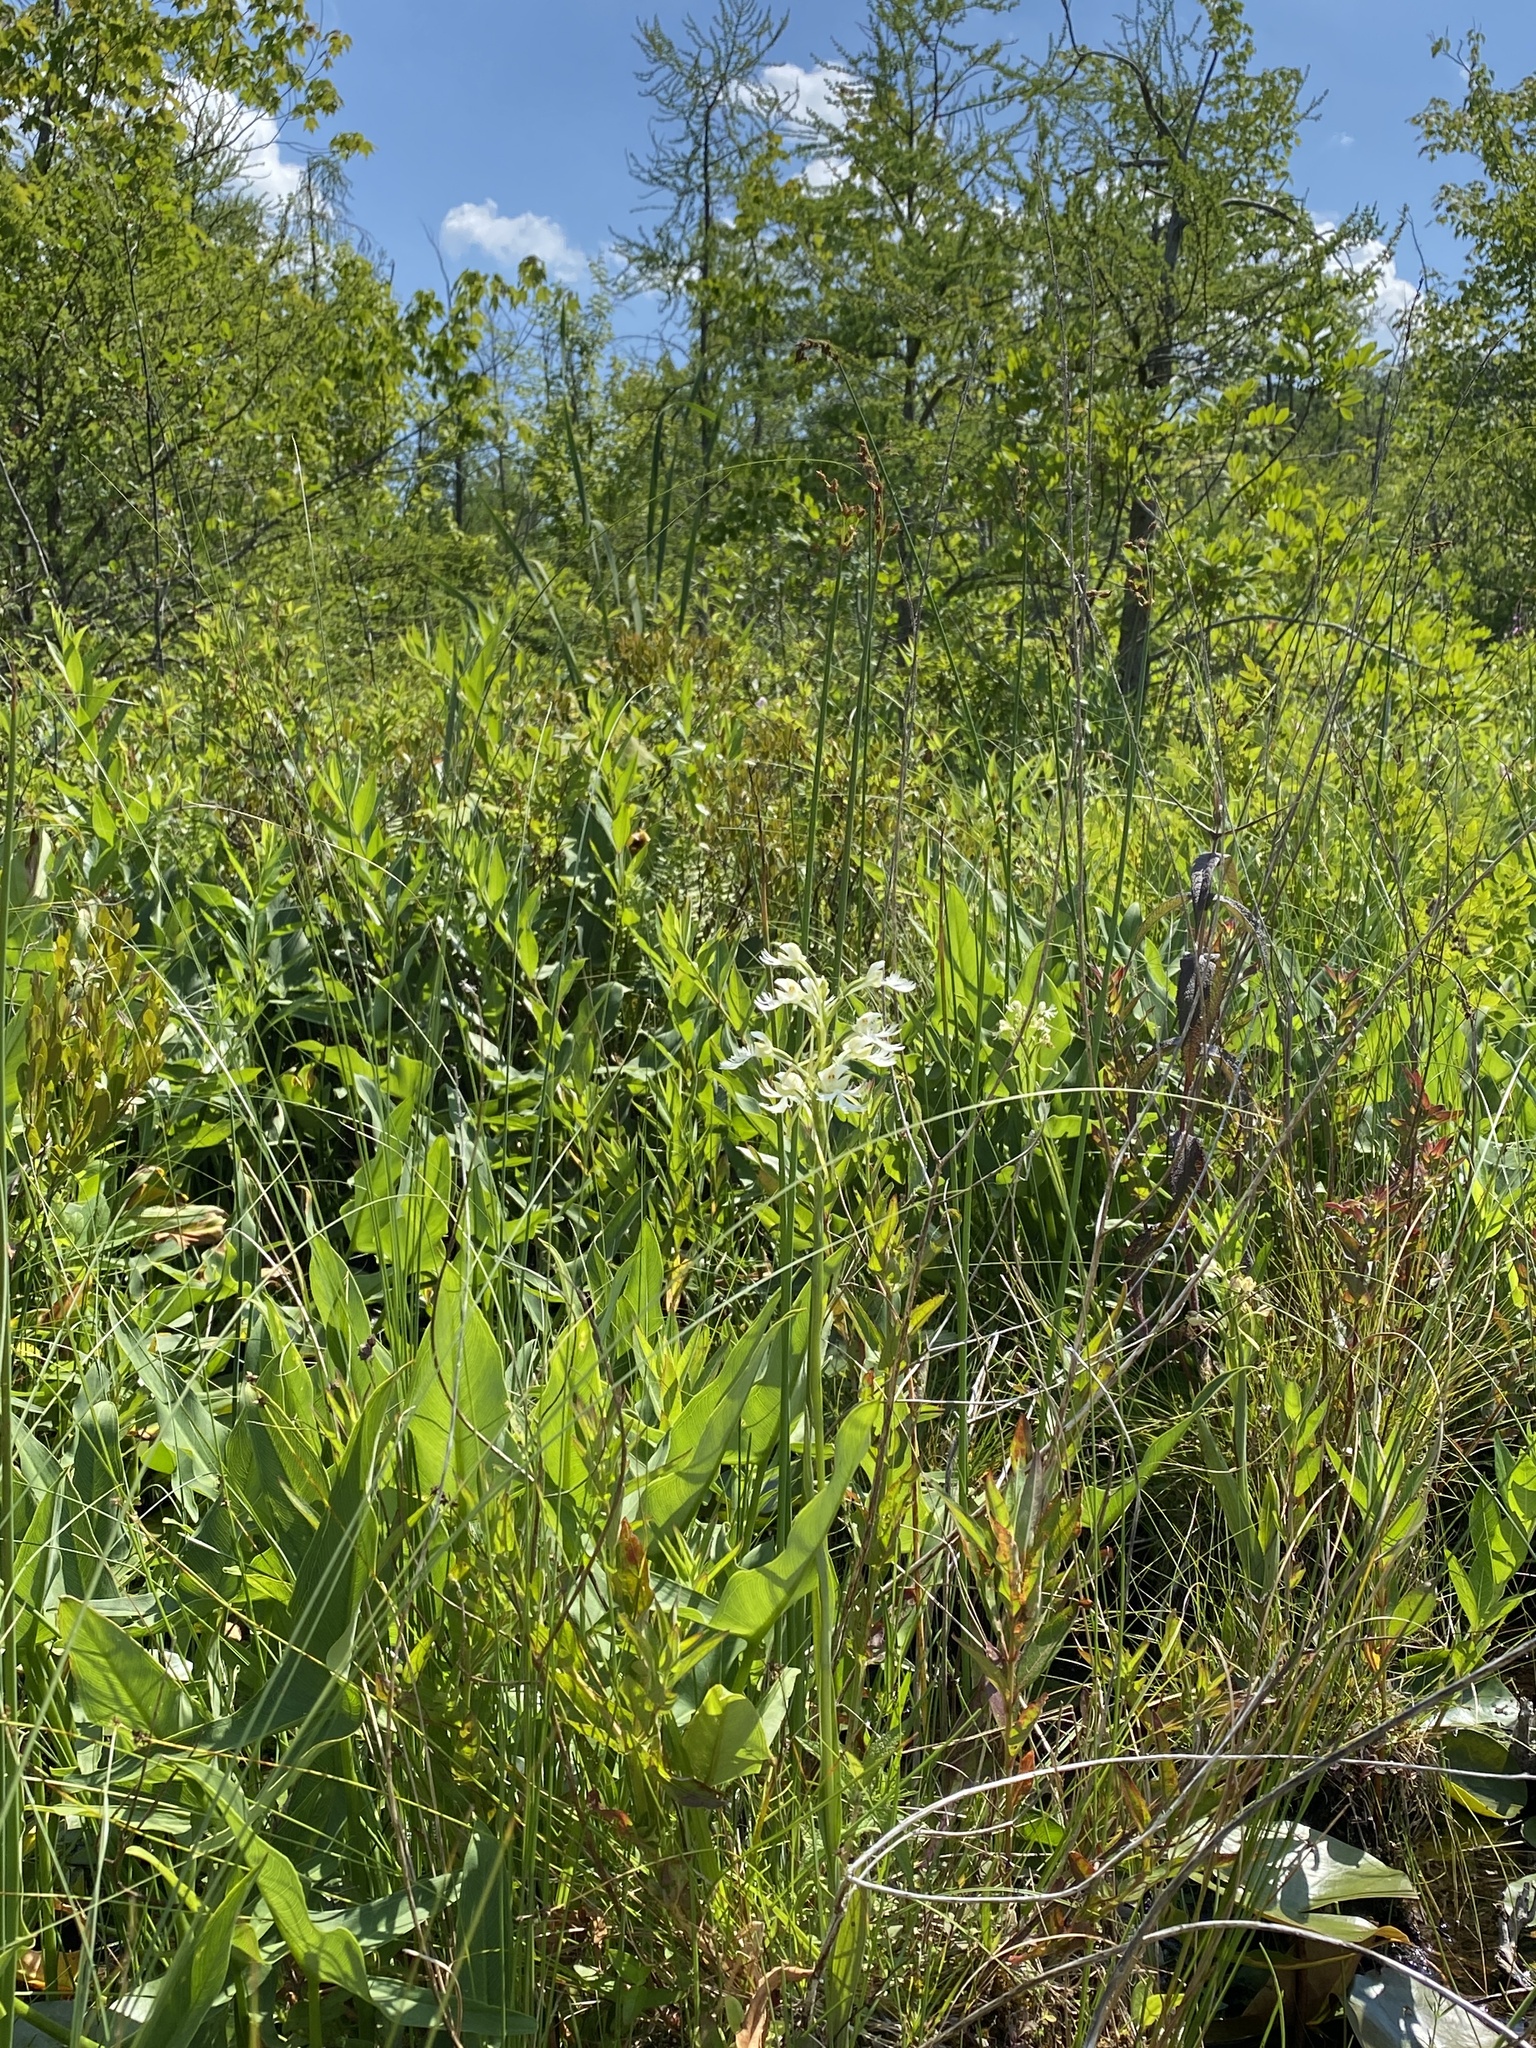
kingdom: Plantae
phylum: Tracheophyta
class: Liliopsida
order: Asparagales
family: Orchidaceae
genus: Platanthera
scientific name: Platanthera leucophaea
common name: Eastern prairie white-fringed orchid
